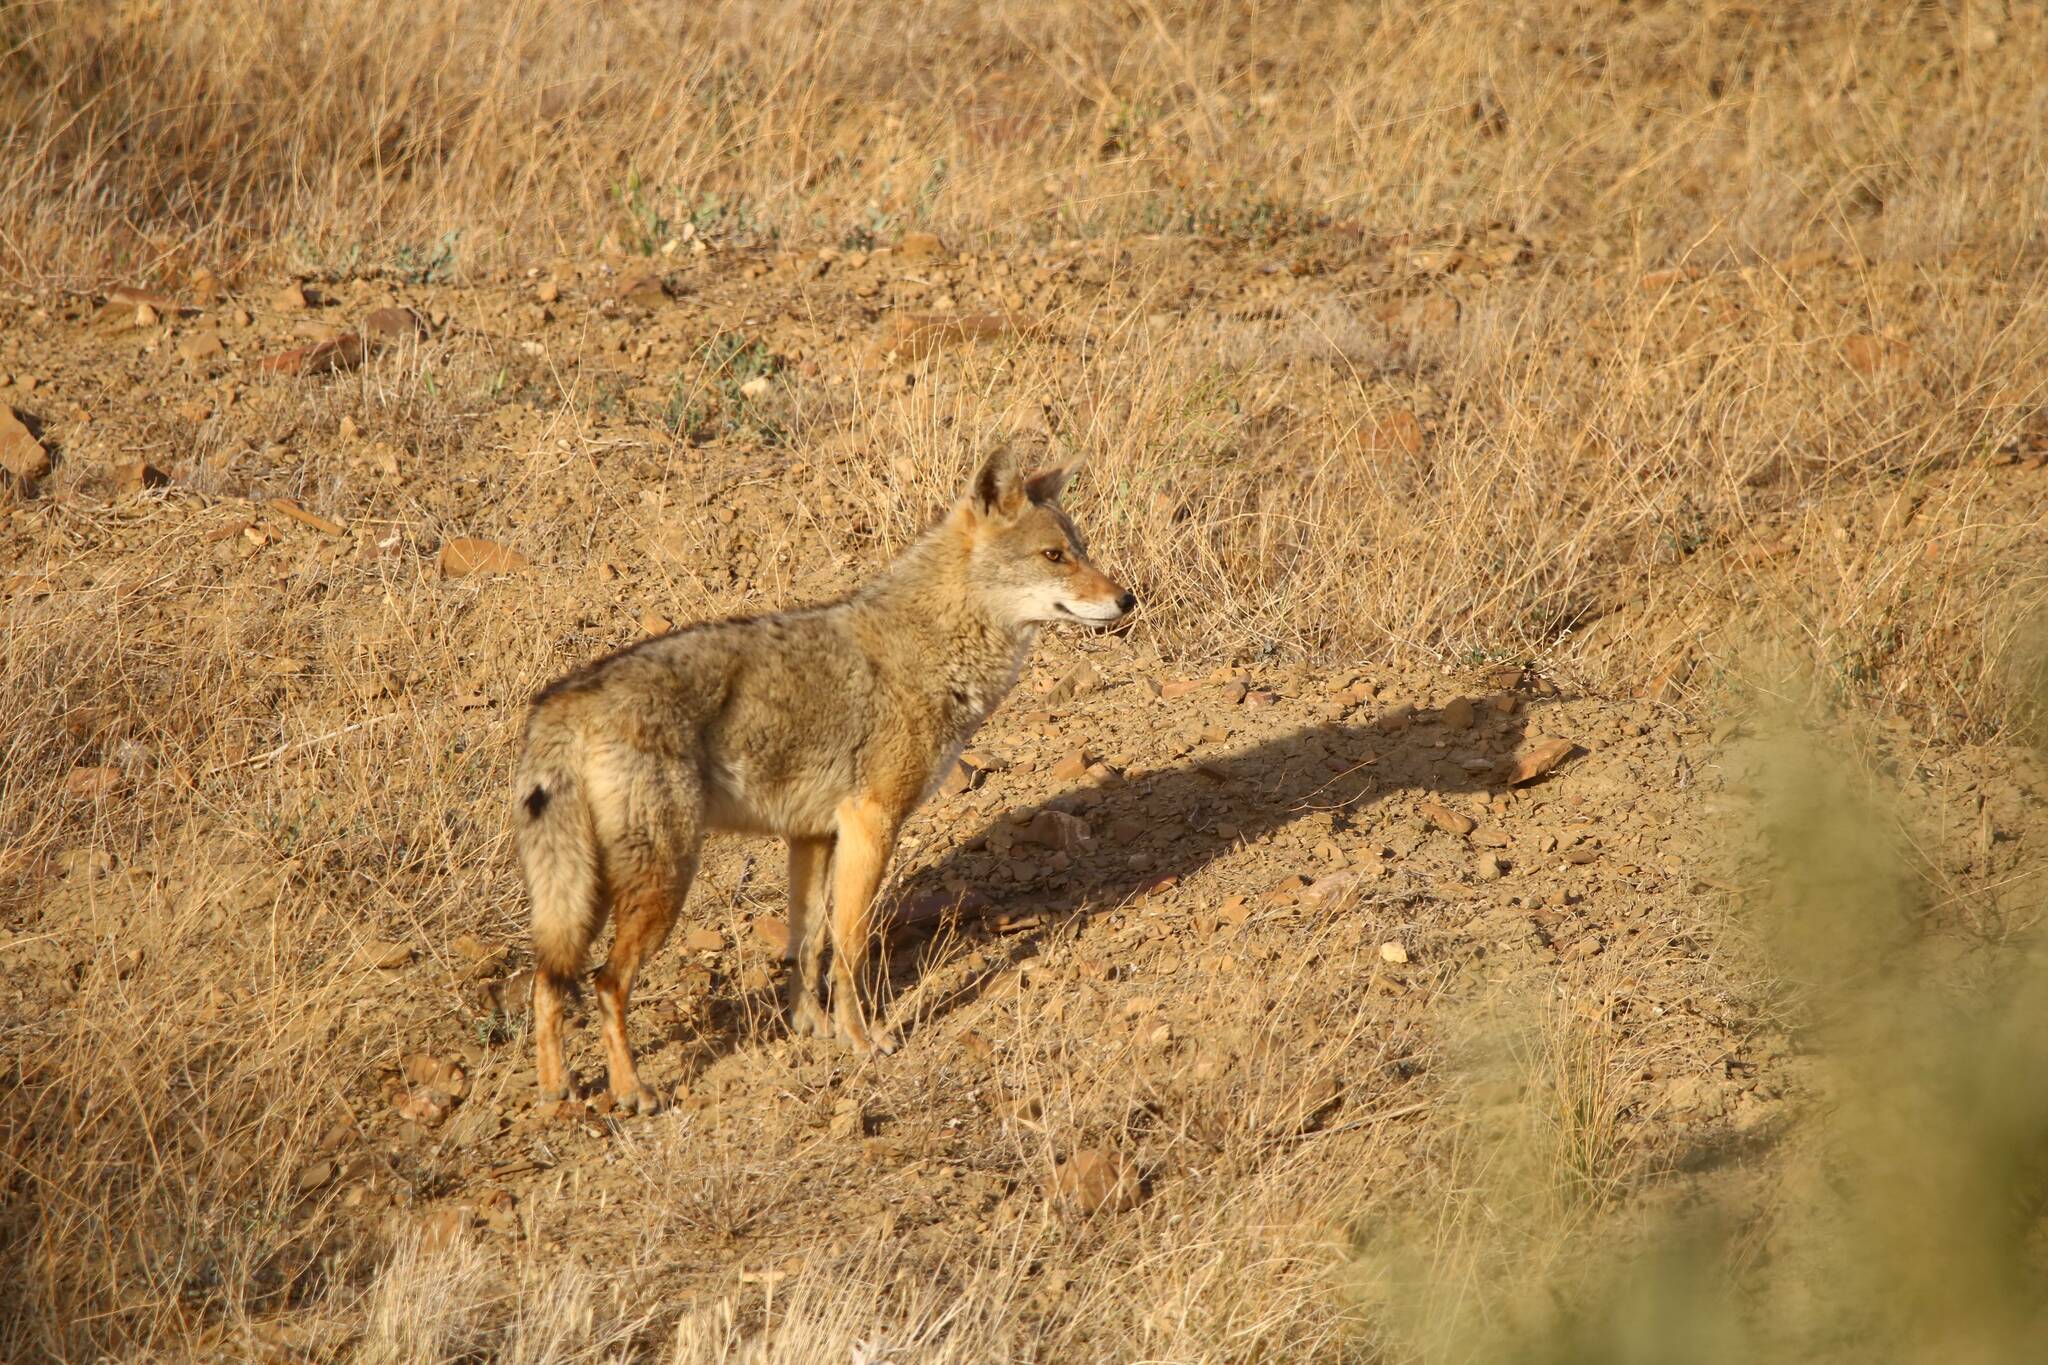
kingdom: Animalia
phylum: Chordata
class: Mammalia
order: Carnivora
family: Canidae
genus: Canis
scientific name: Canis lupaster
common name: African golden wolf
